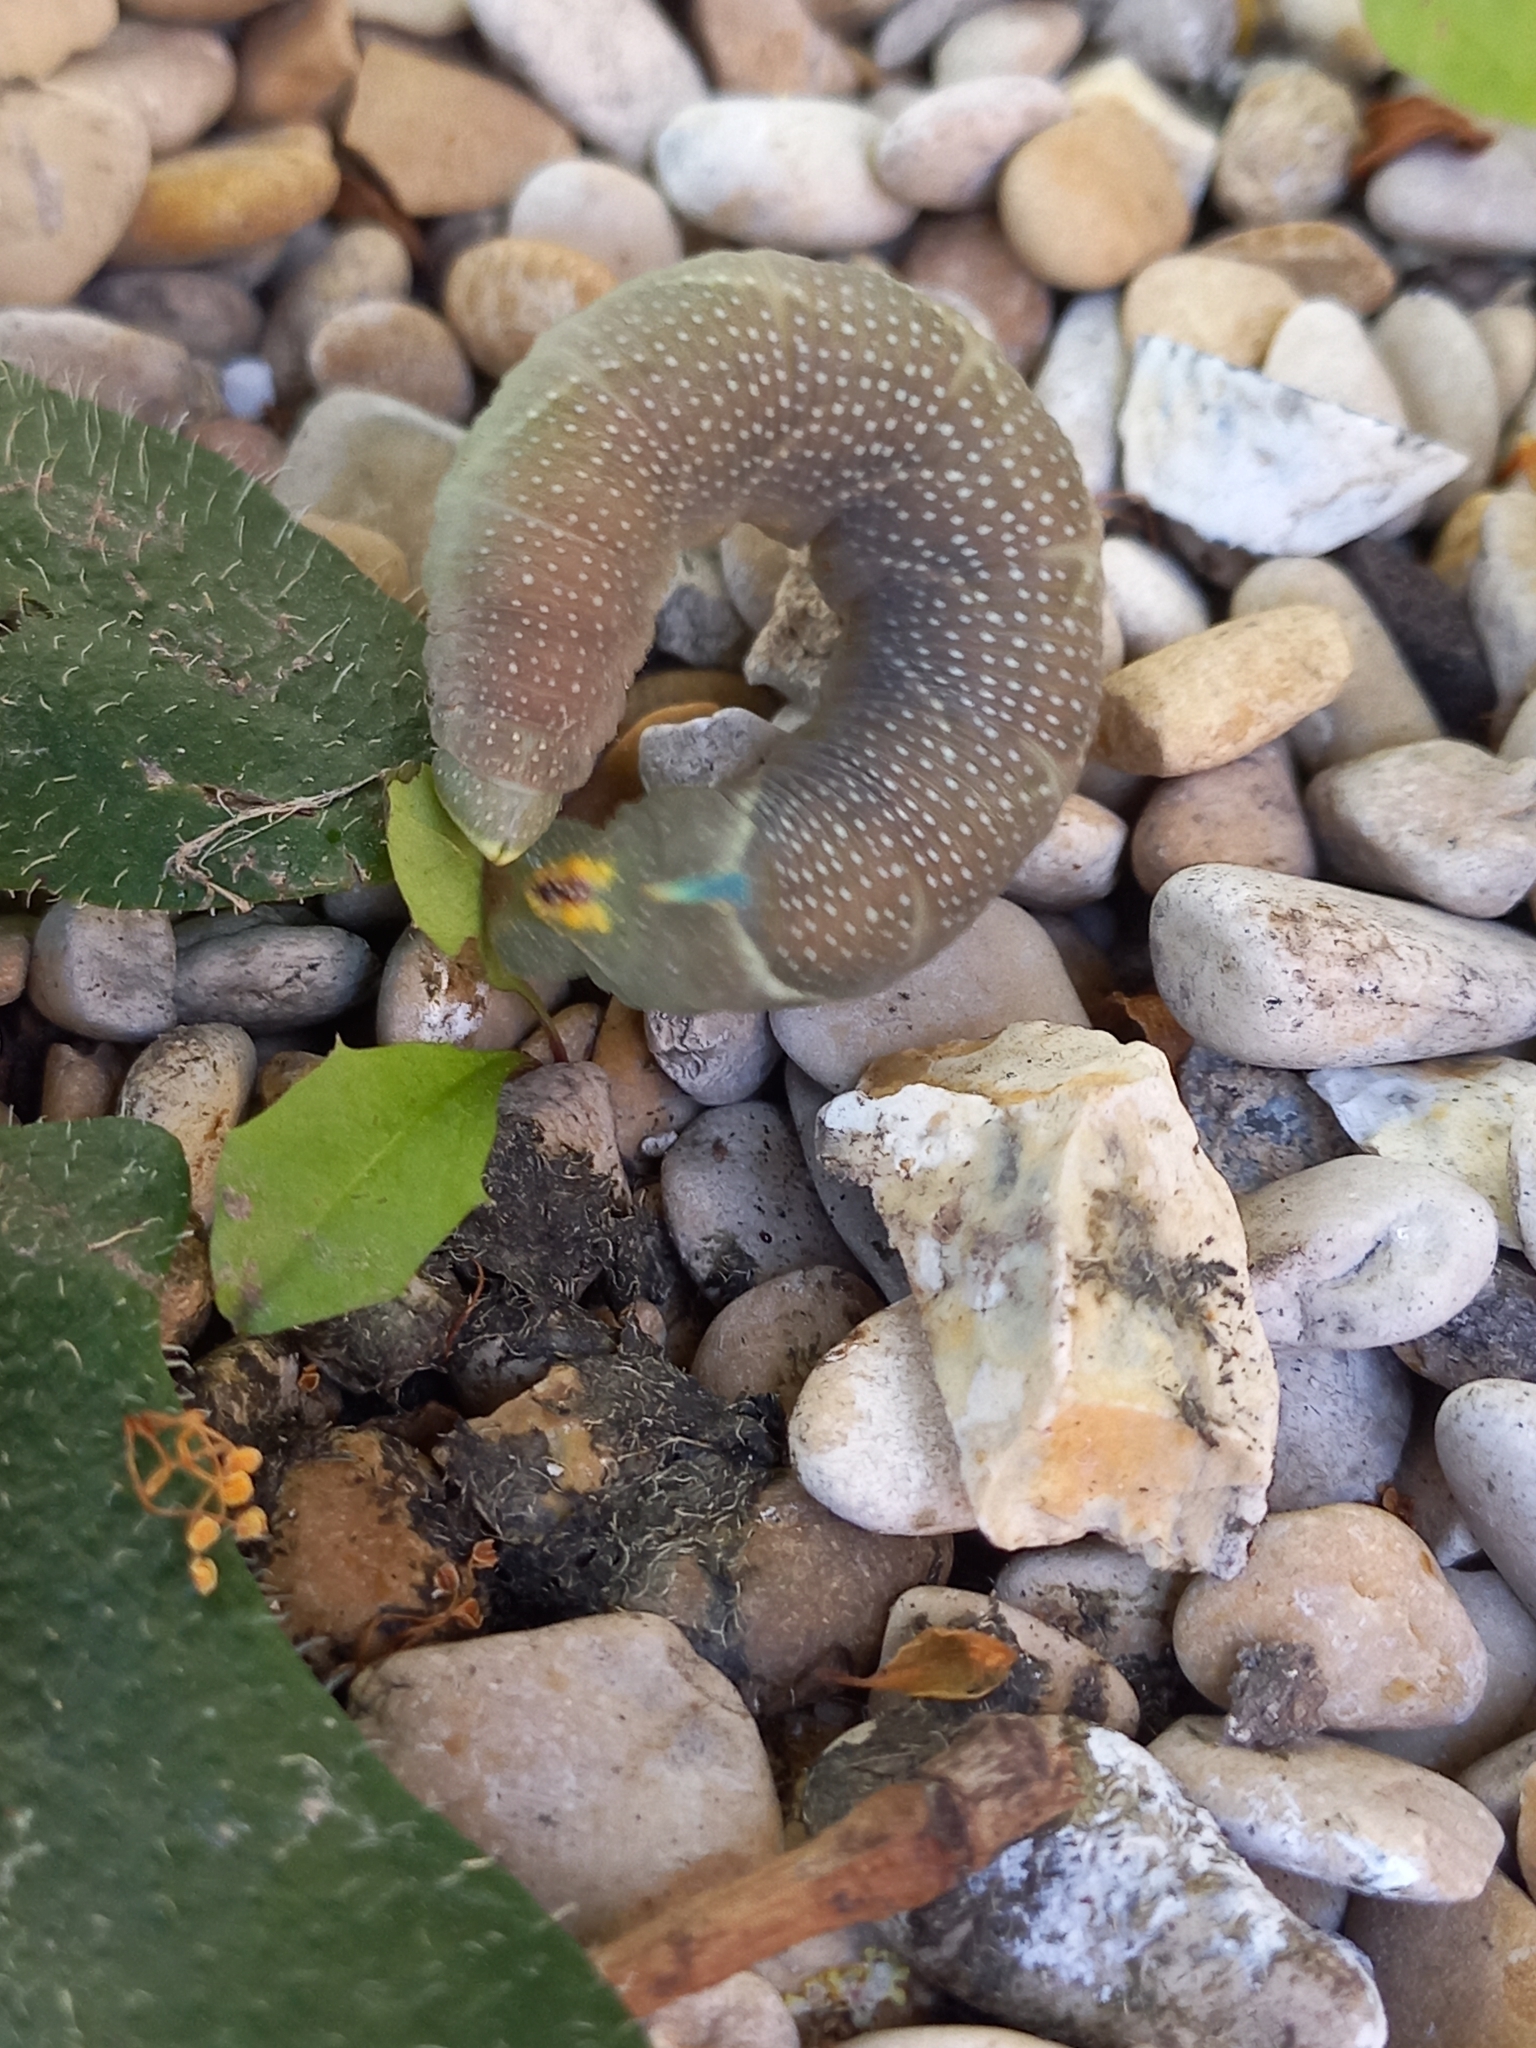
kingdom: Animalia
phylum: Arthropoda
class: Insecta
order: Lepidoptera
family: Sphingidae
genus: Mimas
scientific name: Mimas tiliae
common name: Lime hawk-moth
